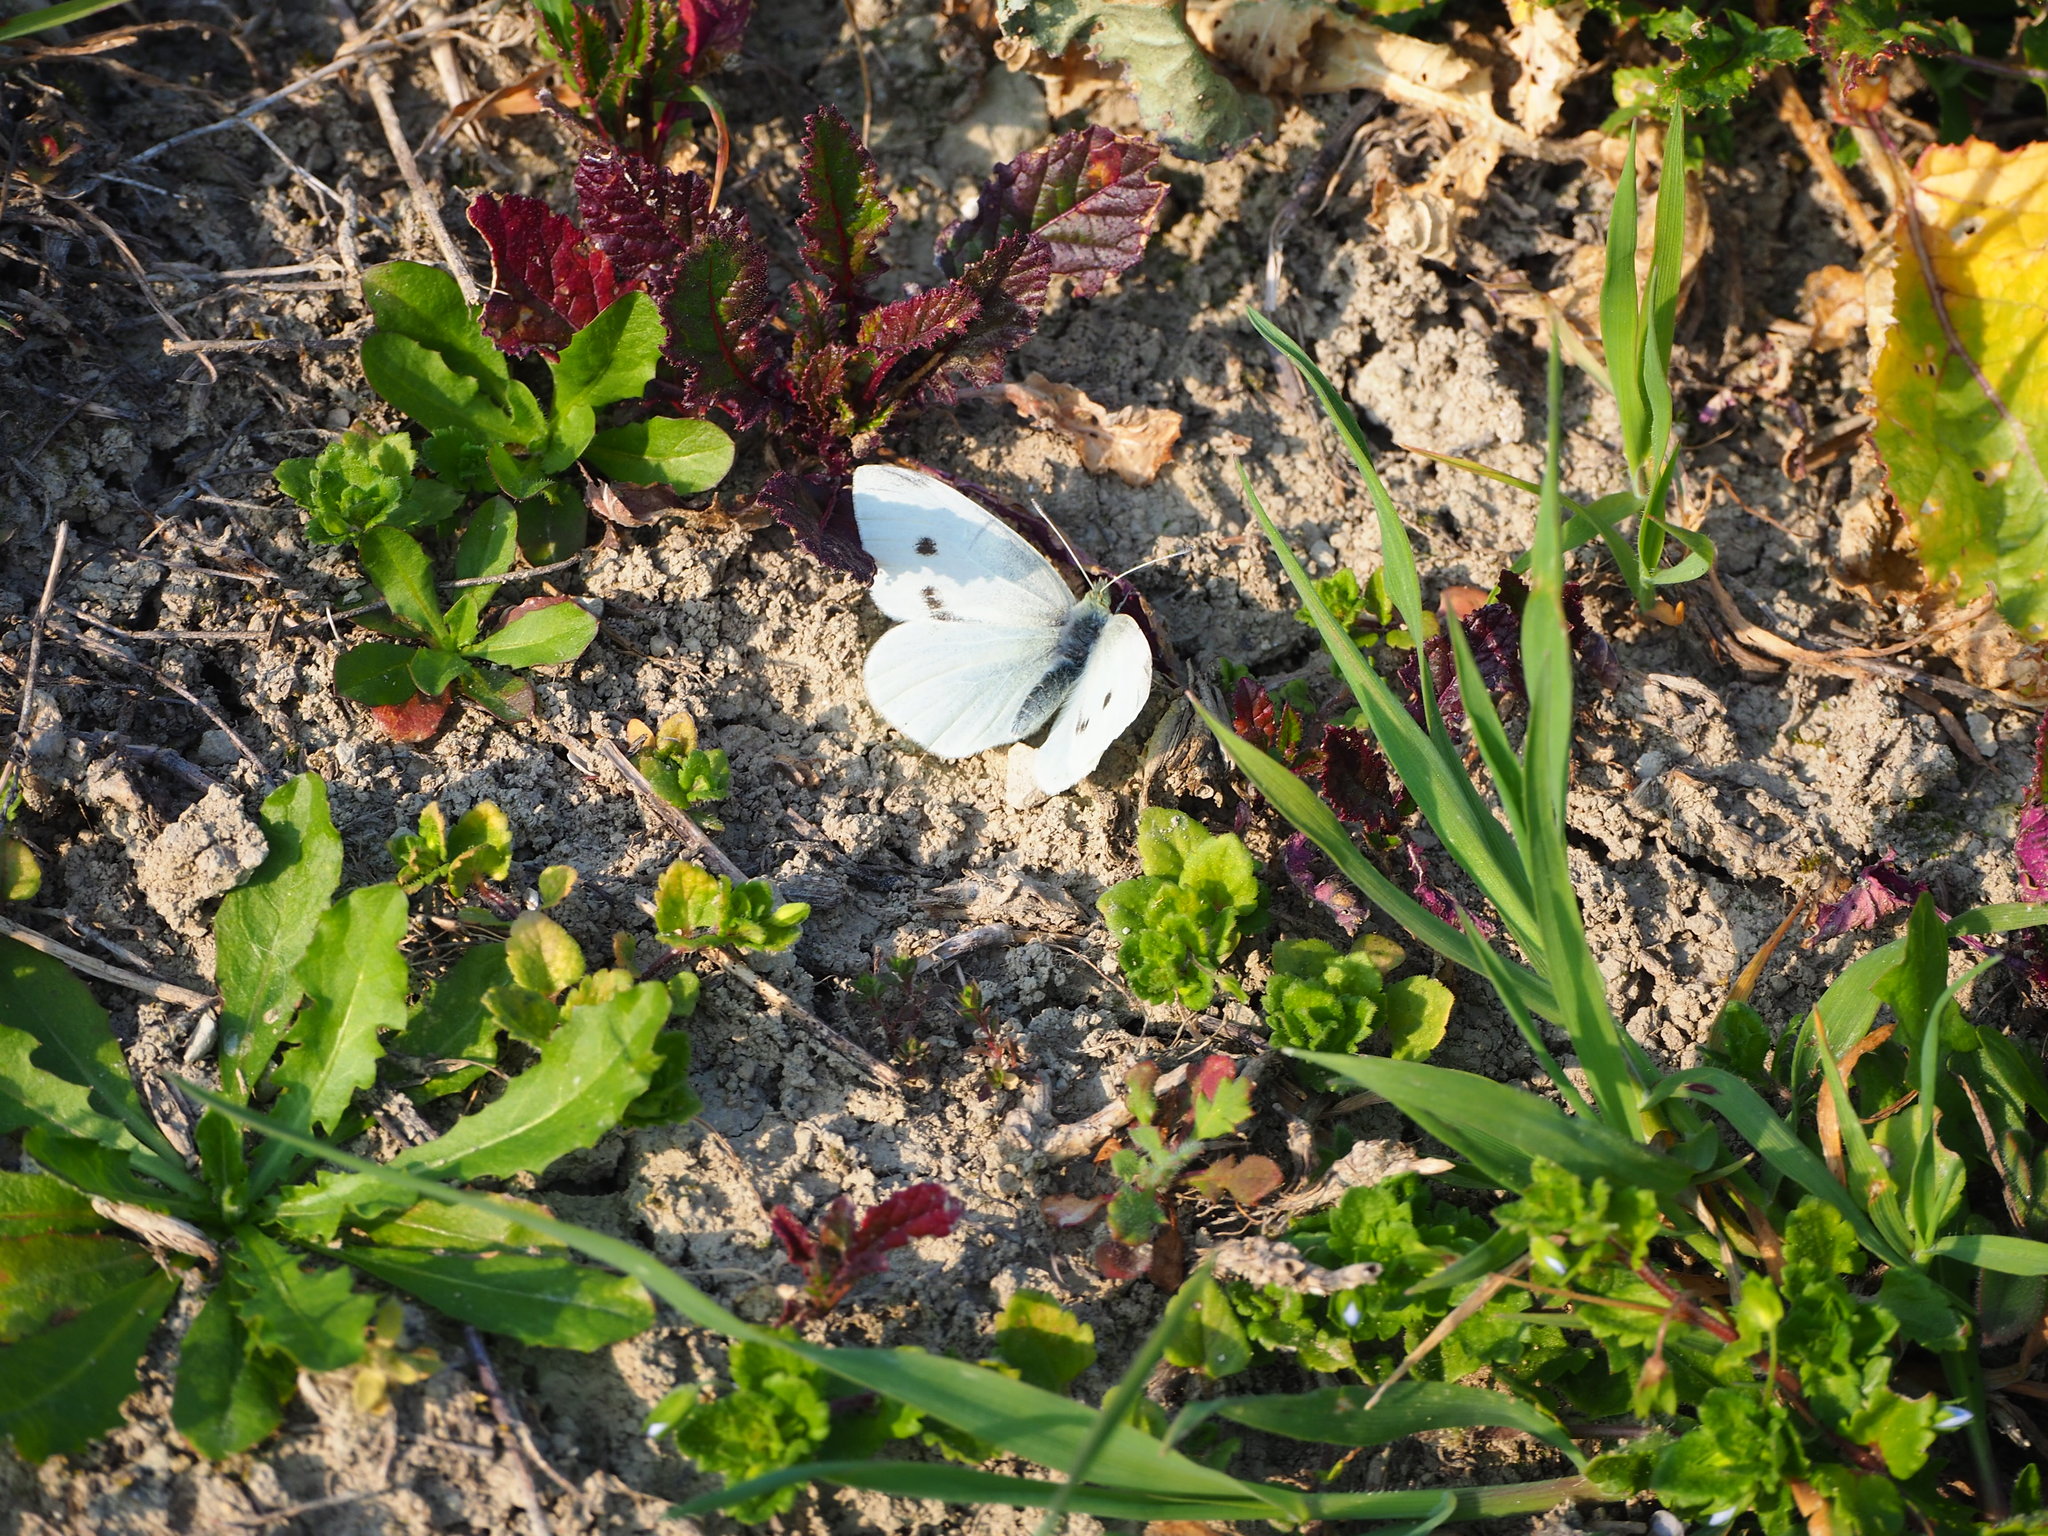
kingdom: Animalia
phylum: Arthropoda
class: Insecta
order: Lepidoptera
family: Pieridae
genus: Pieris
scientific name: Pieris rapae
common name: Small white
